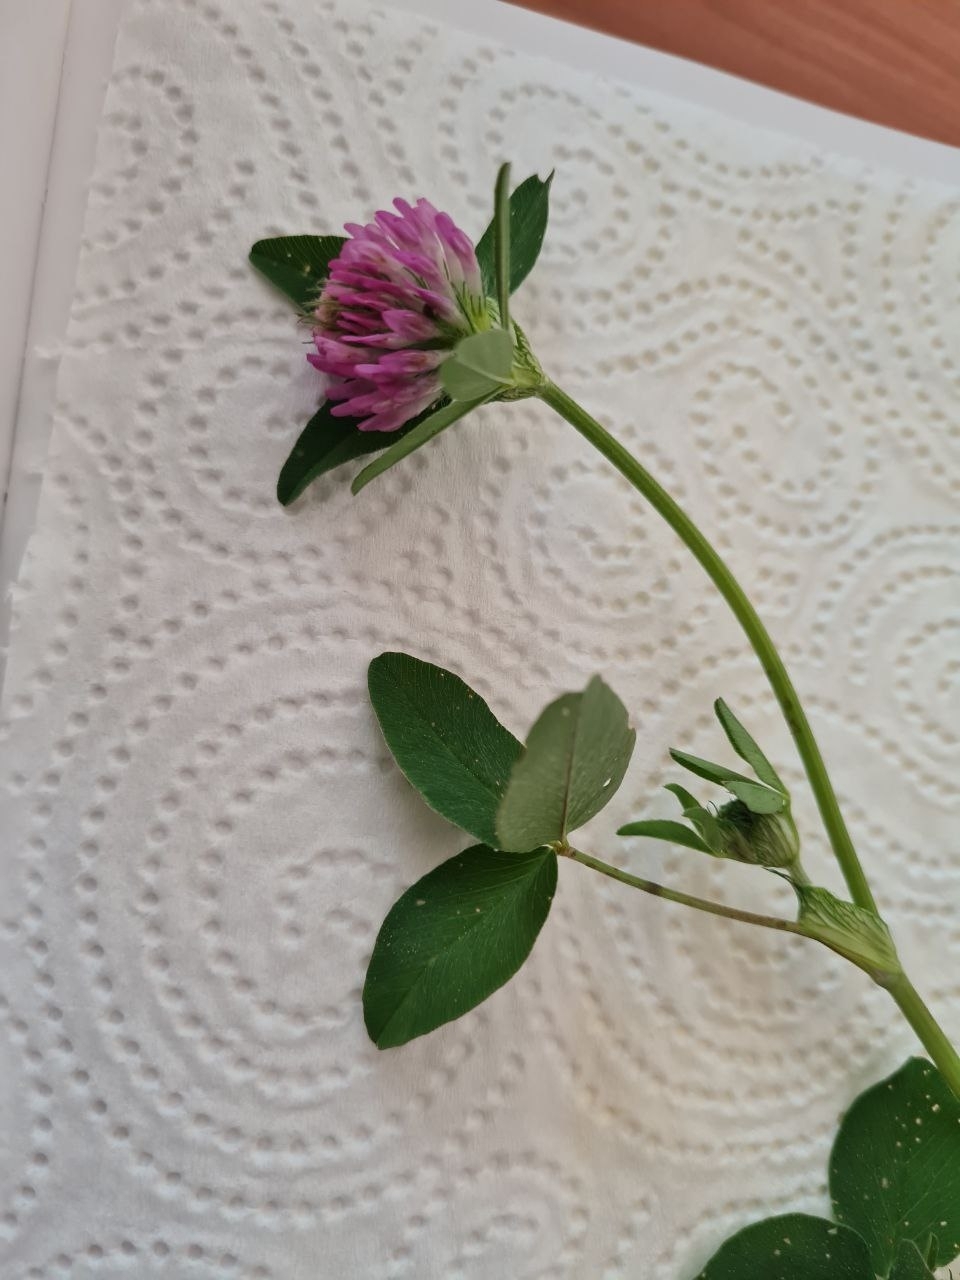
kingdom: Plantae
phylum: Tracheophyta
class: Magnoliopsida
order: Fabales
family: Fabaceae
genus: Trifolium
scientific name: Trifolium pratense
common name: Red clover
